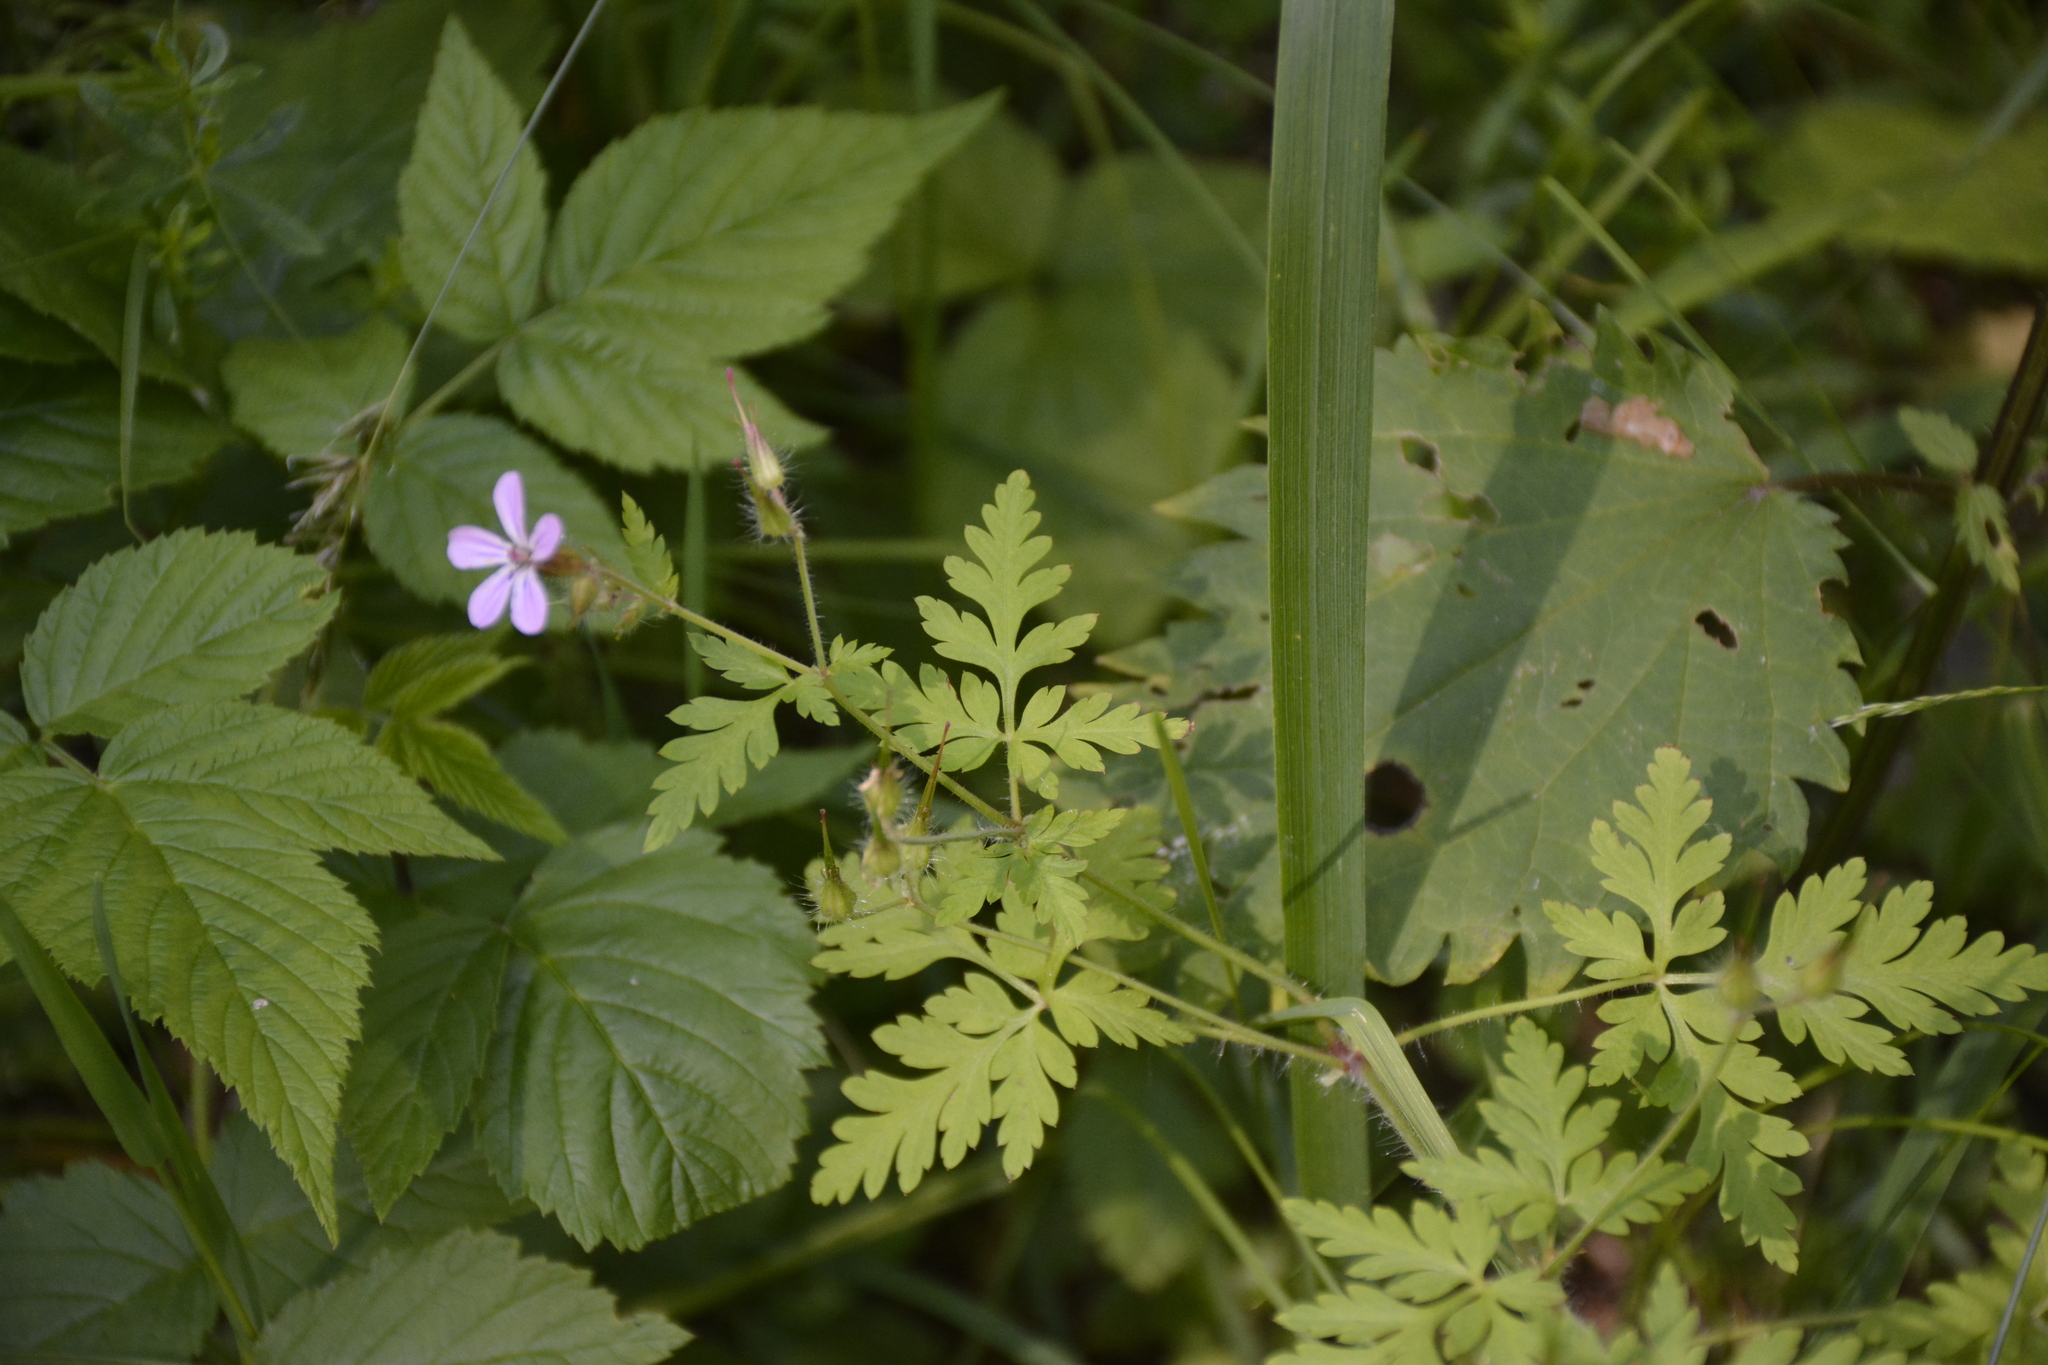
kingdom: Plantae
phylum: Tracheophyta
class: Magnoliopsida
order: Geraniales
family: Geraniaceae
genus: Geranium
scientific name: Geranium robertianum
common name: Herb-robert
